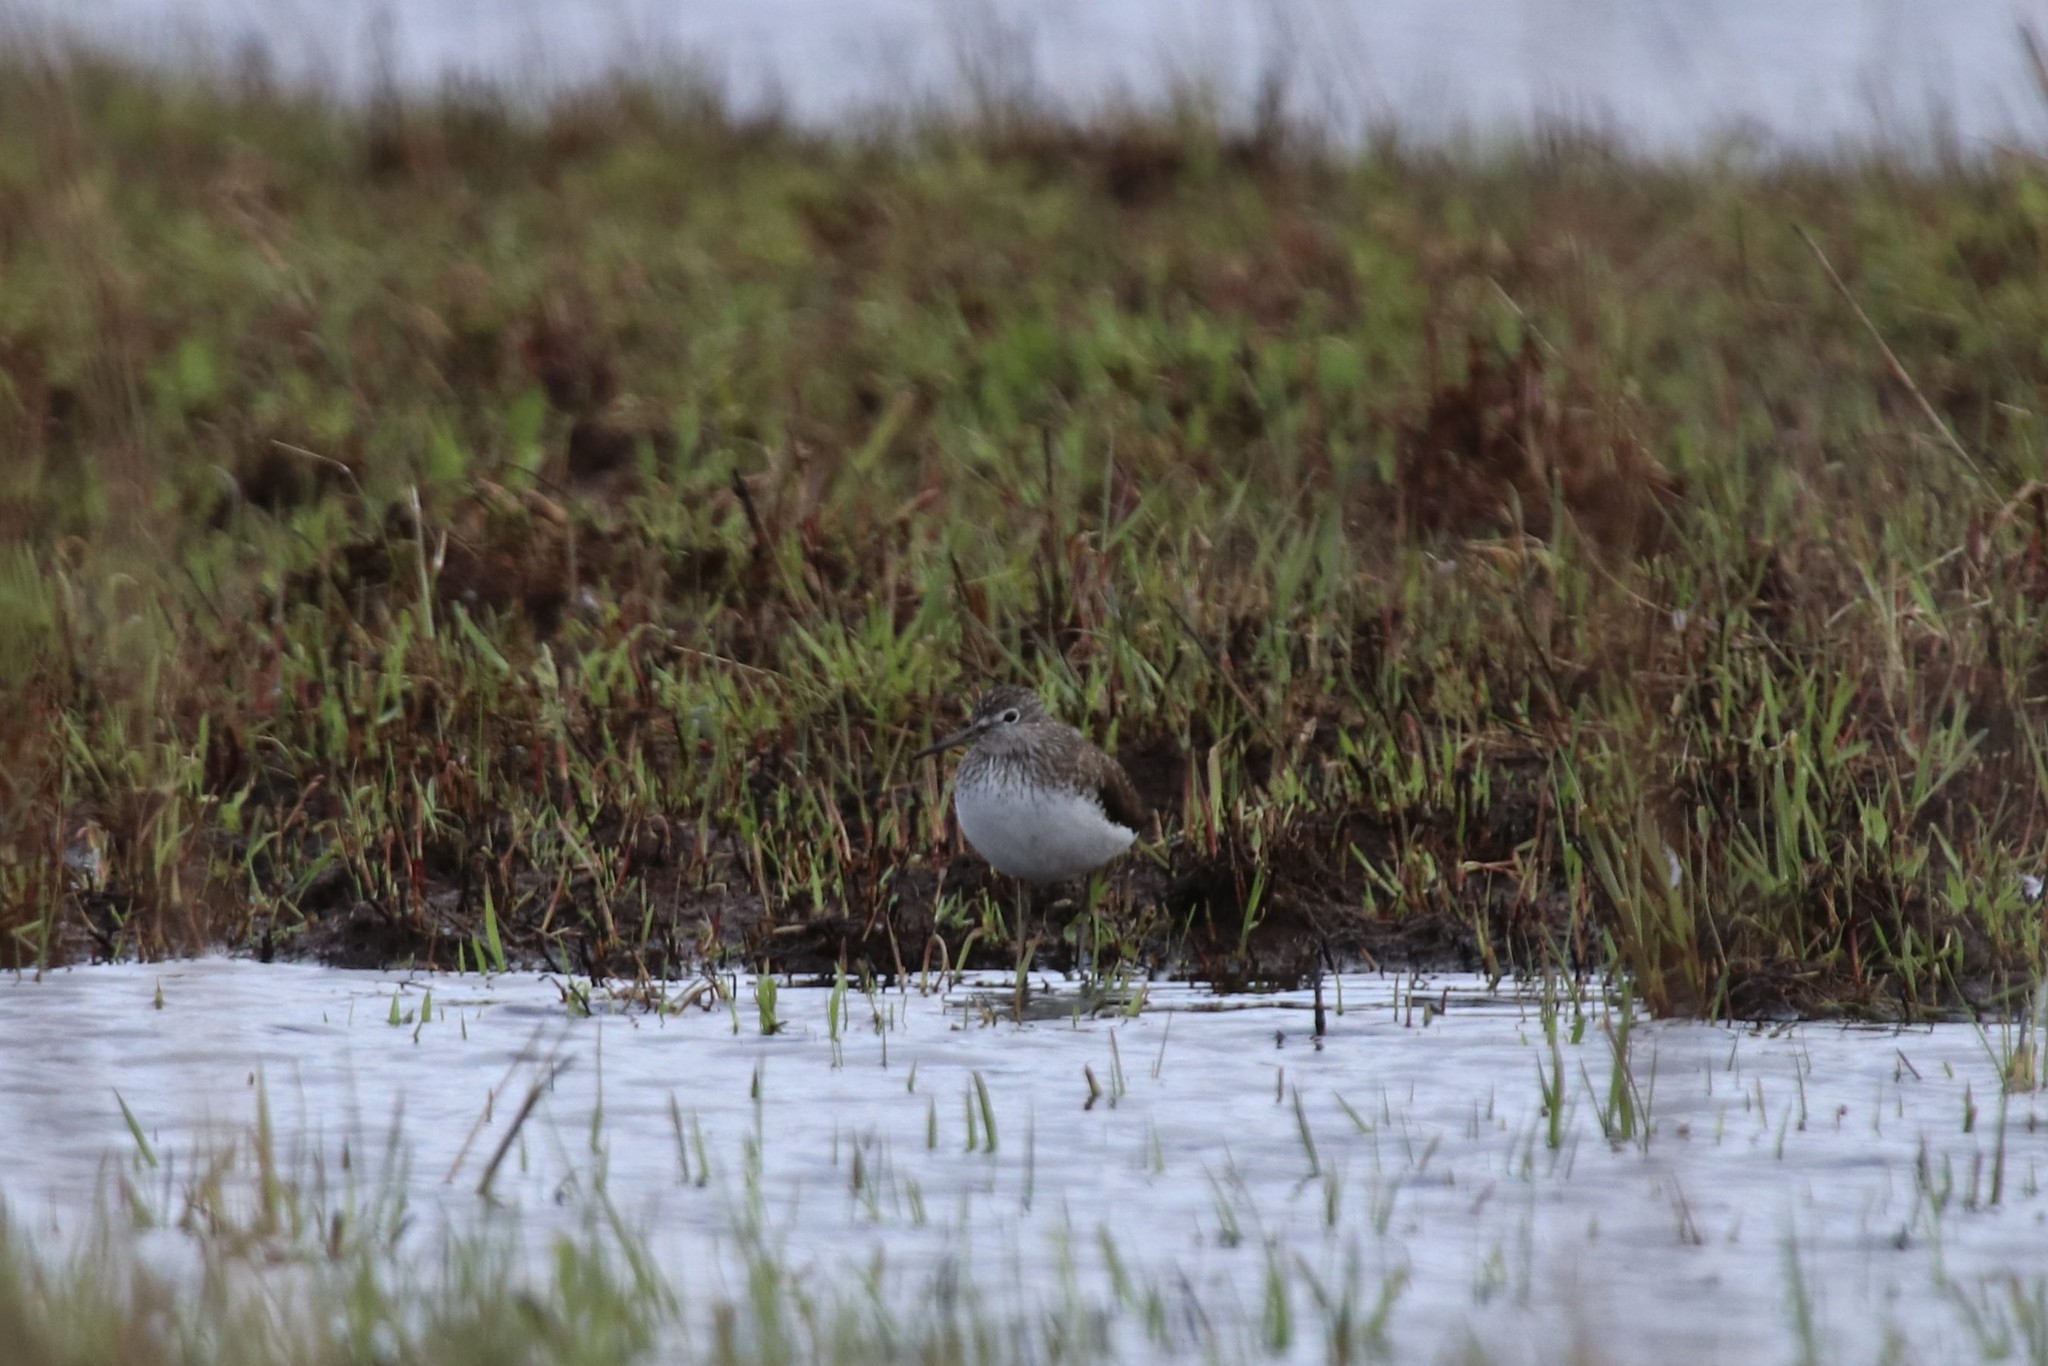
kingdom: Animalia
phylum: Chordata
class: Aves
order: Charadriiformes
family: Scolopacidae
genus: Tringa
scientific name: Tringa ochropus
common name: Green sandpiper
